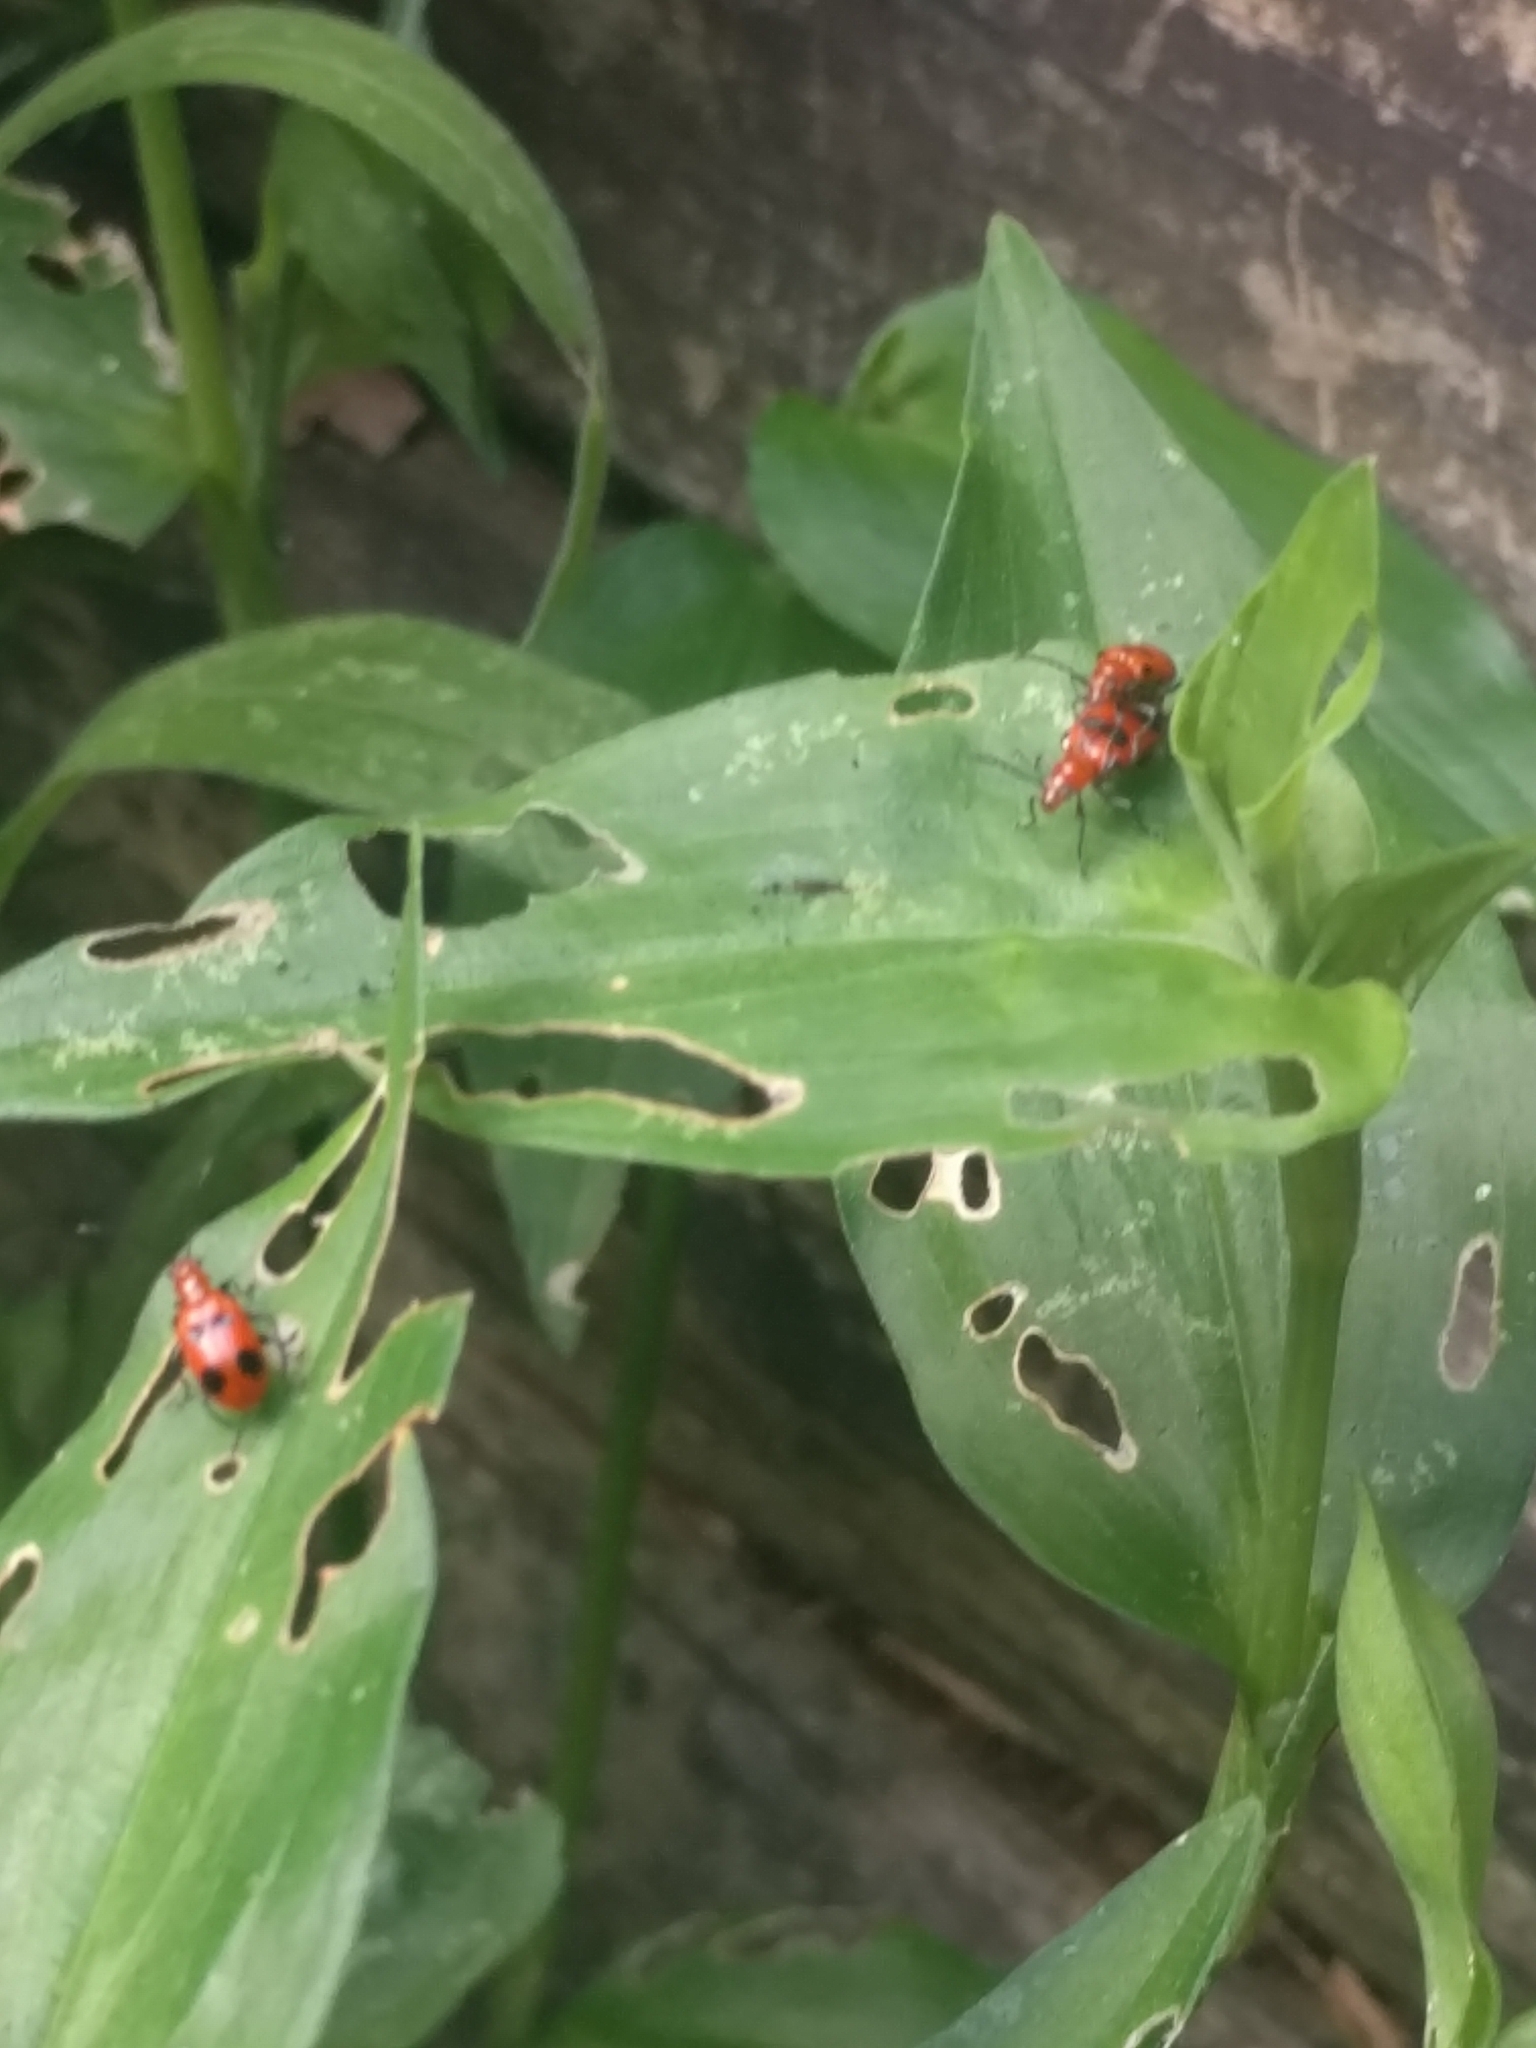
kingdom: Animalia
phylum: Arthropoda
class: Insecta
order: Coleoptera
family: Chrysomelidae
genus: Neolema
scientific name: Neolema sexpunctata
